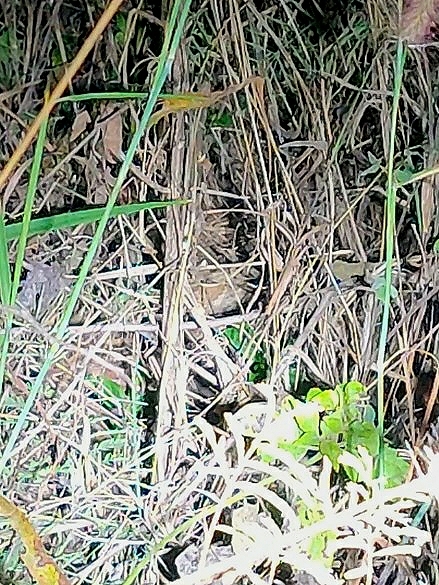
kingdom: Animalia
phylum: Chordata
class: Squamata
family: Viperidae
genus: Daboia
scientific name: Daboia russelii
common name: Western russel’s viper
